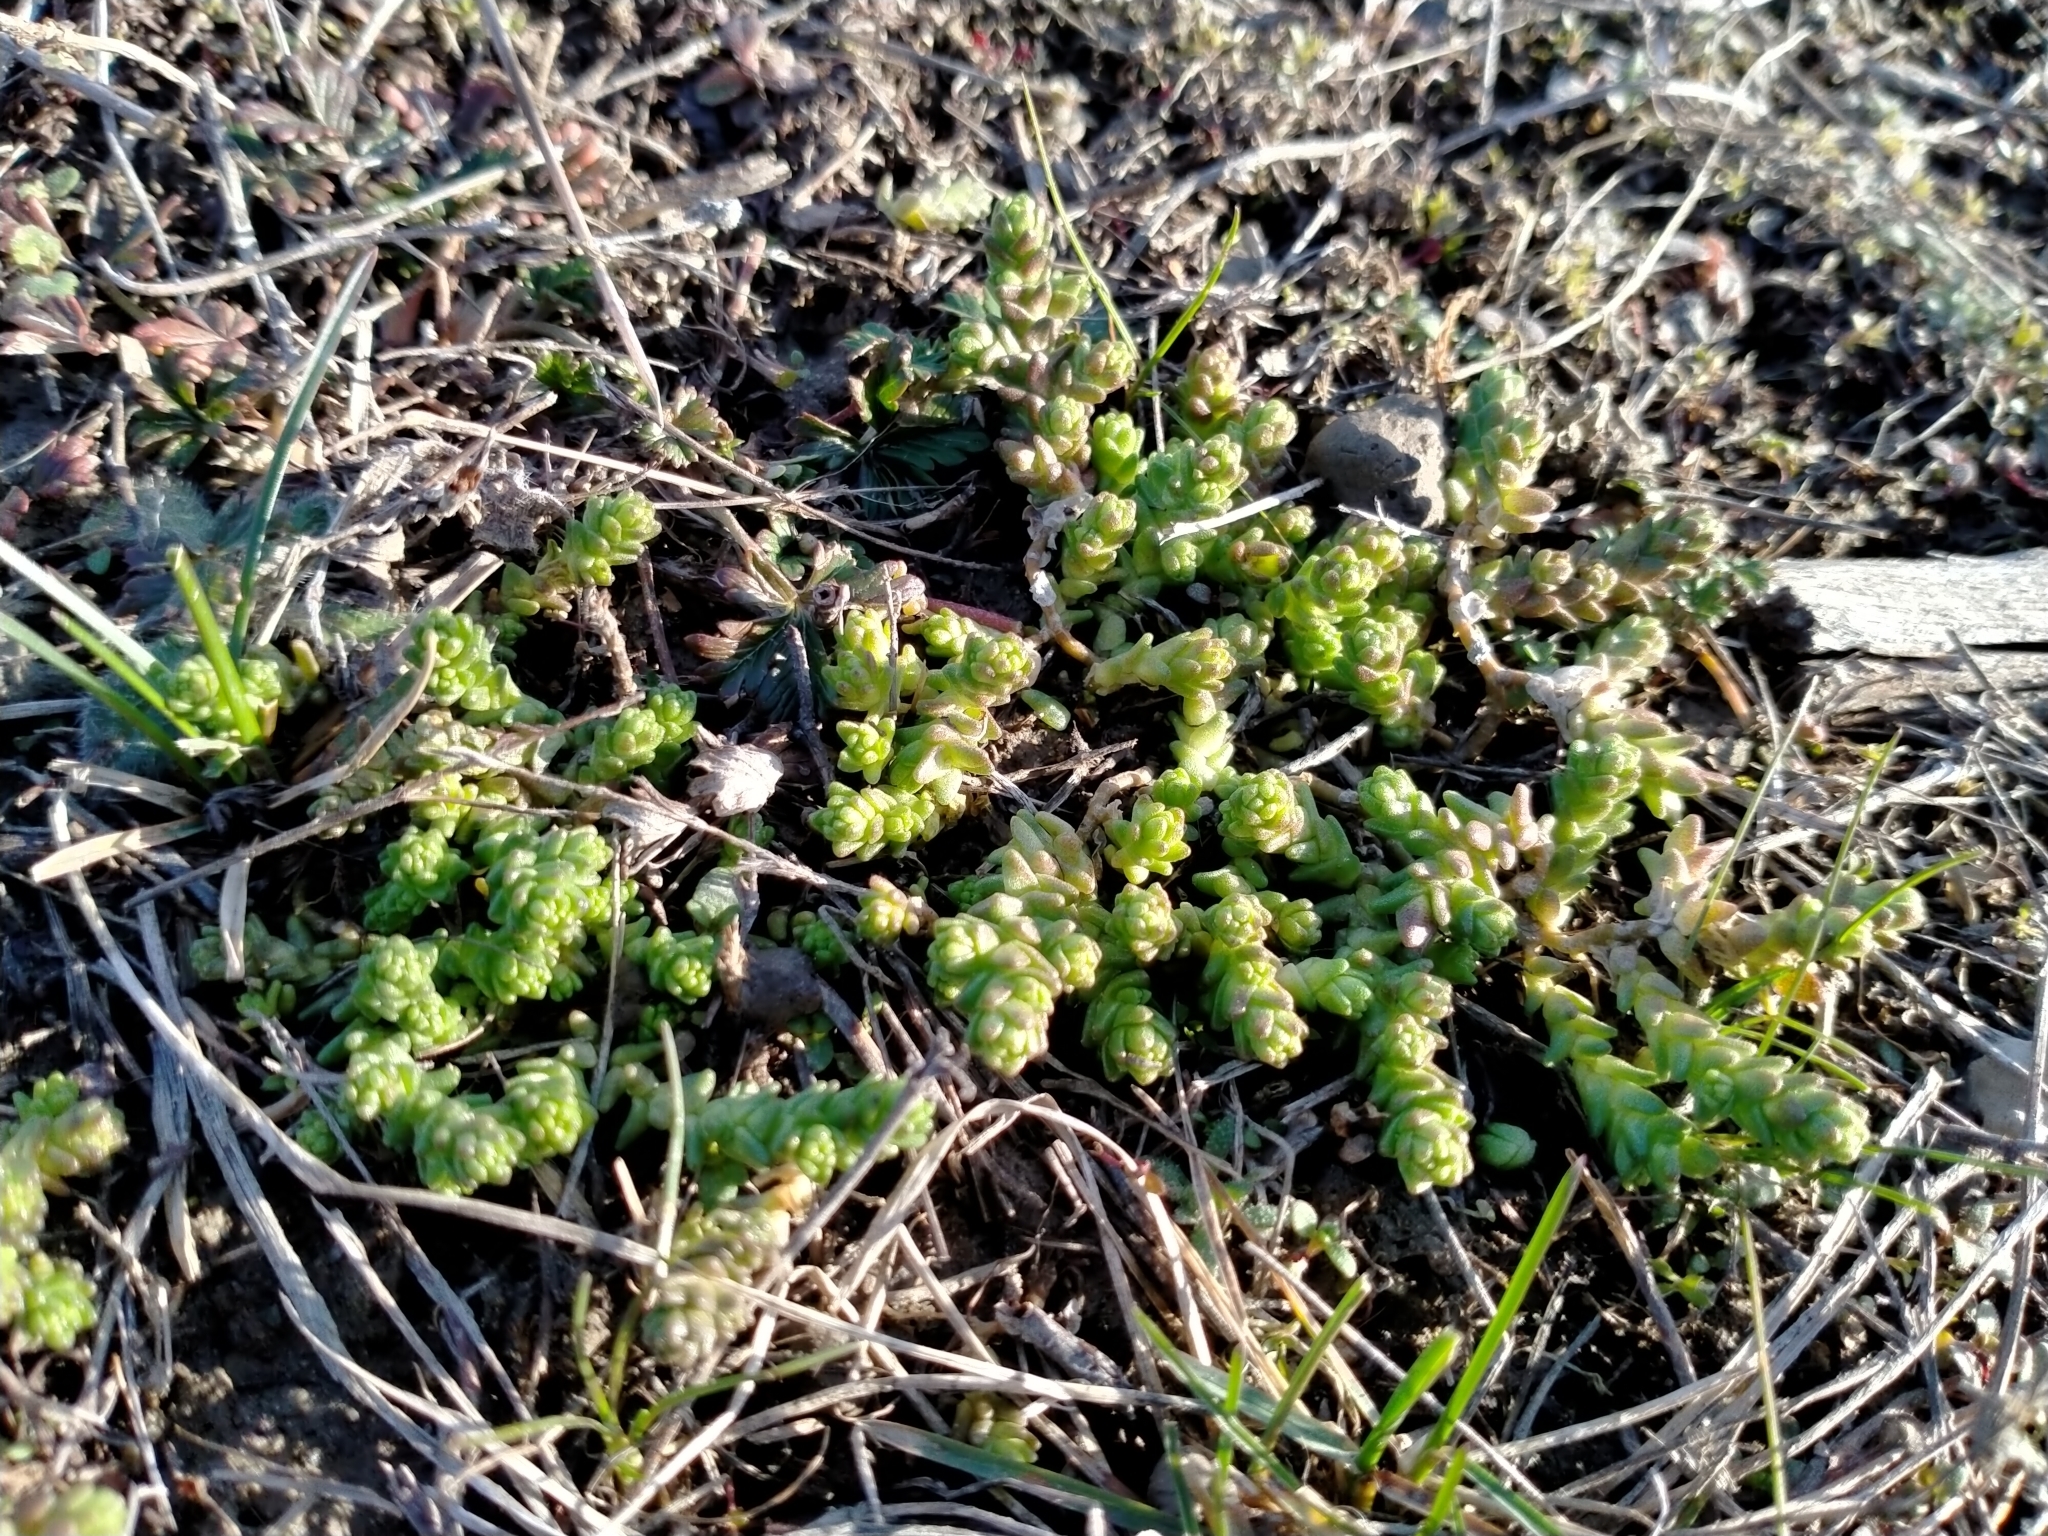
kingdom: Plantae
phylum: Tracheophyta
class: Magnoliopsida
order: Saxifragales
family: Crassulaceae
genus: Sedum
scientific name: Sedum acre
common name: Biting stonecrop
